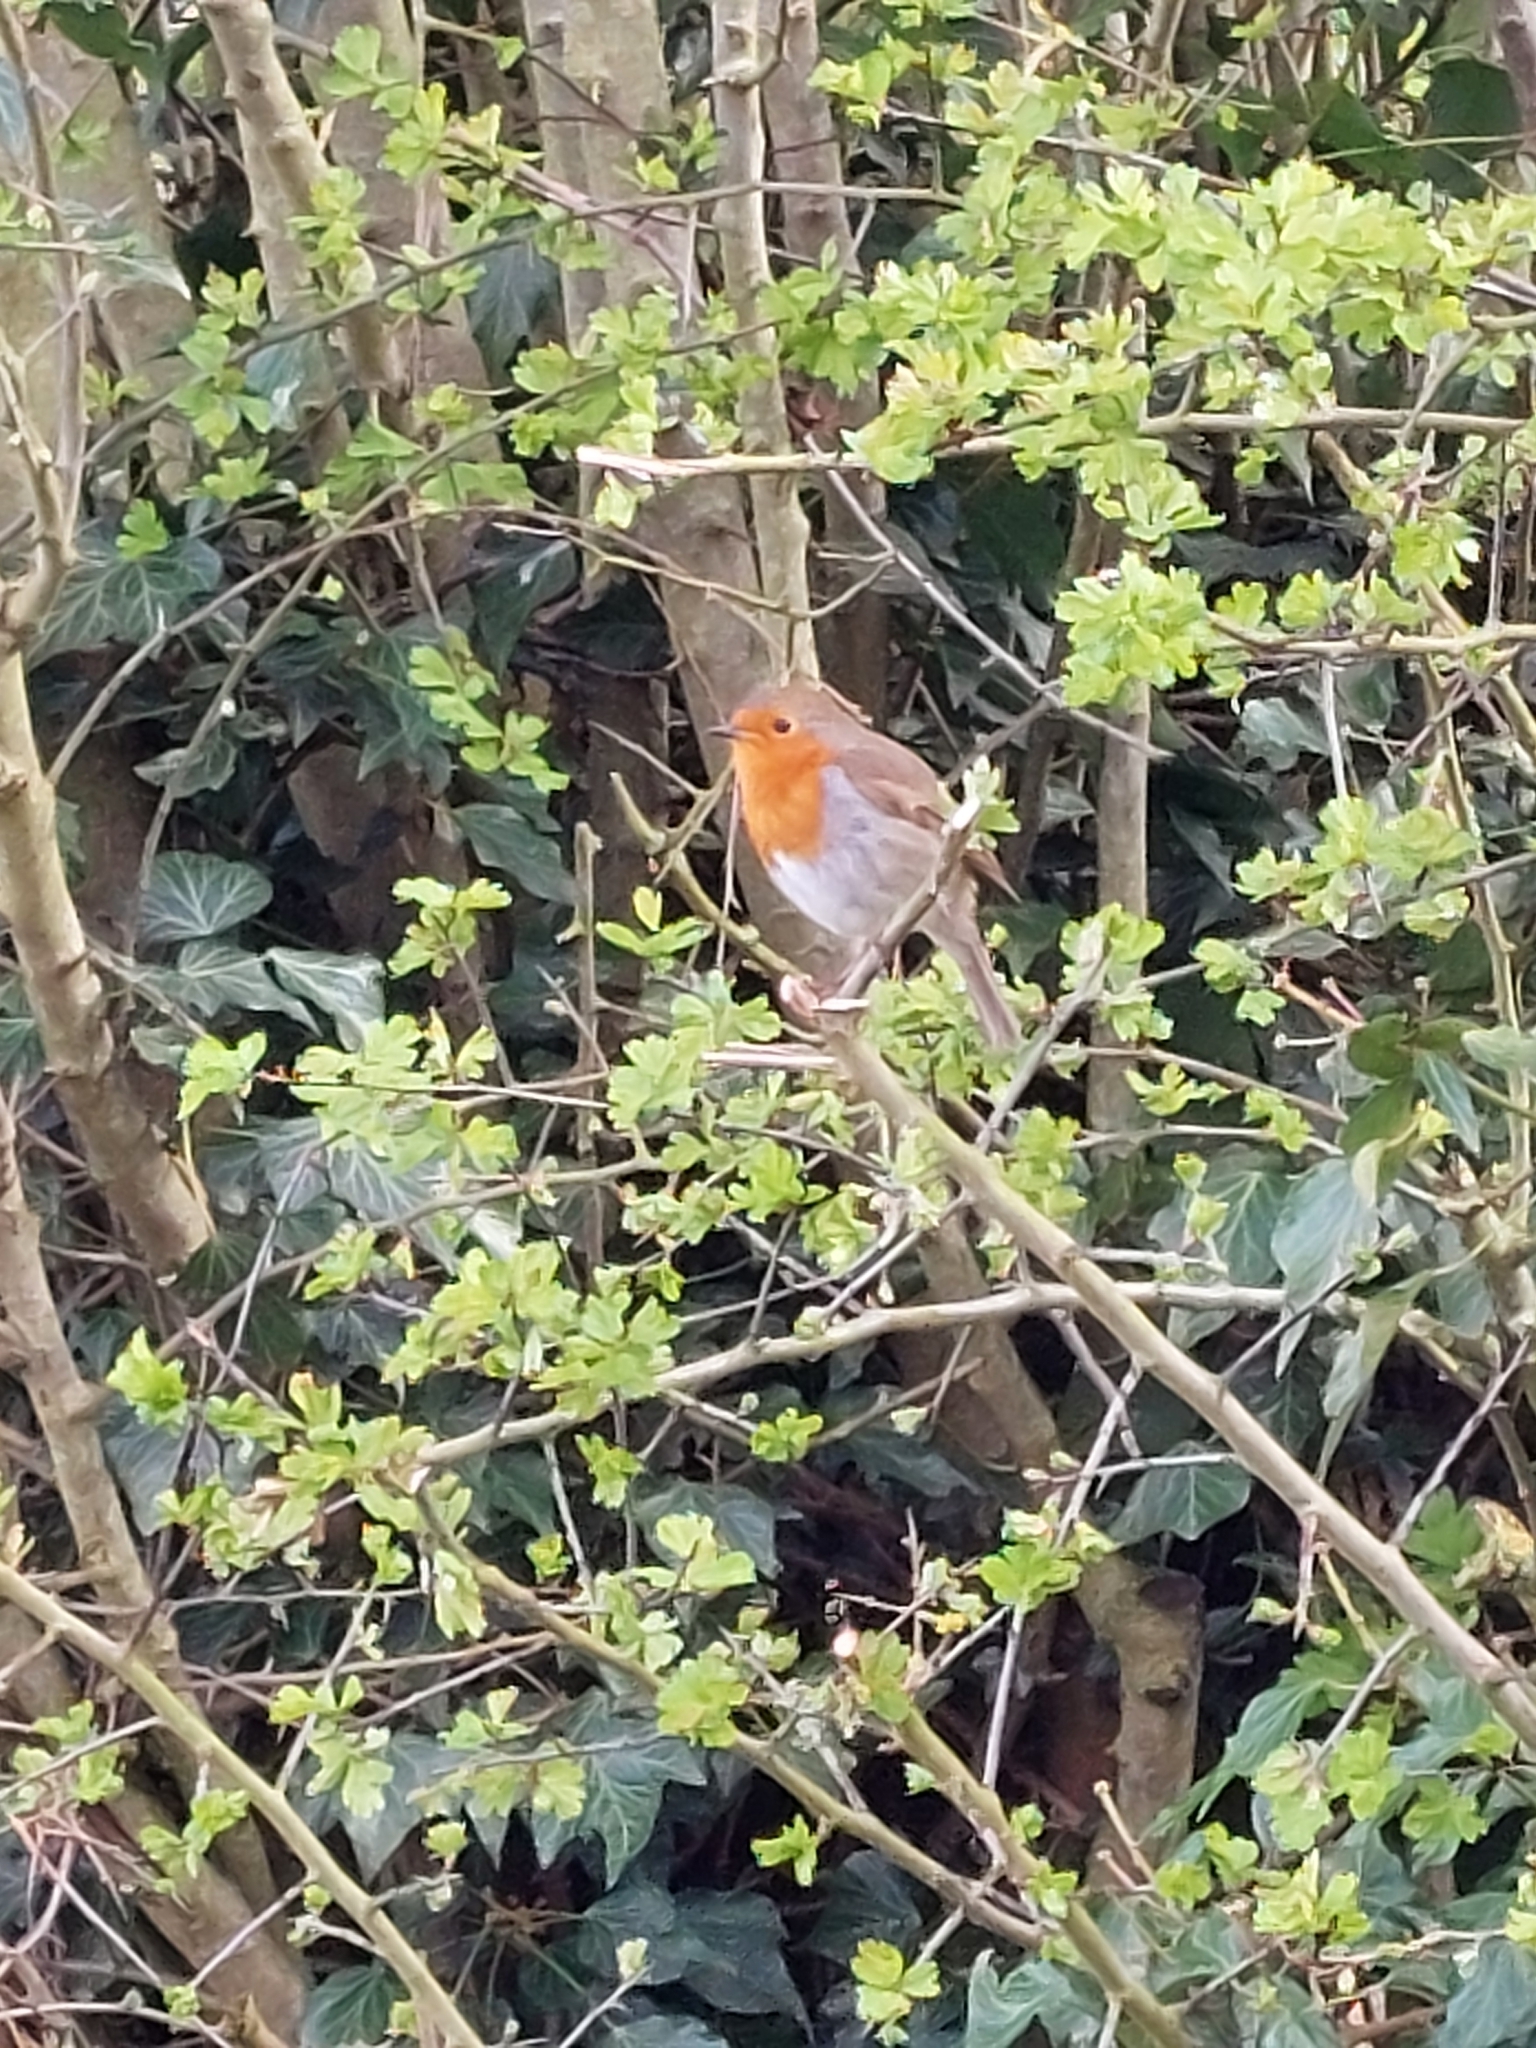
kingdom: Animalia
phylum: Chordata
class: Aves
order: Passeriformes
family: Muscicapidae
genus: Erithacus
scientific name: Erithacus rubecula
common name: European robin
